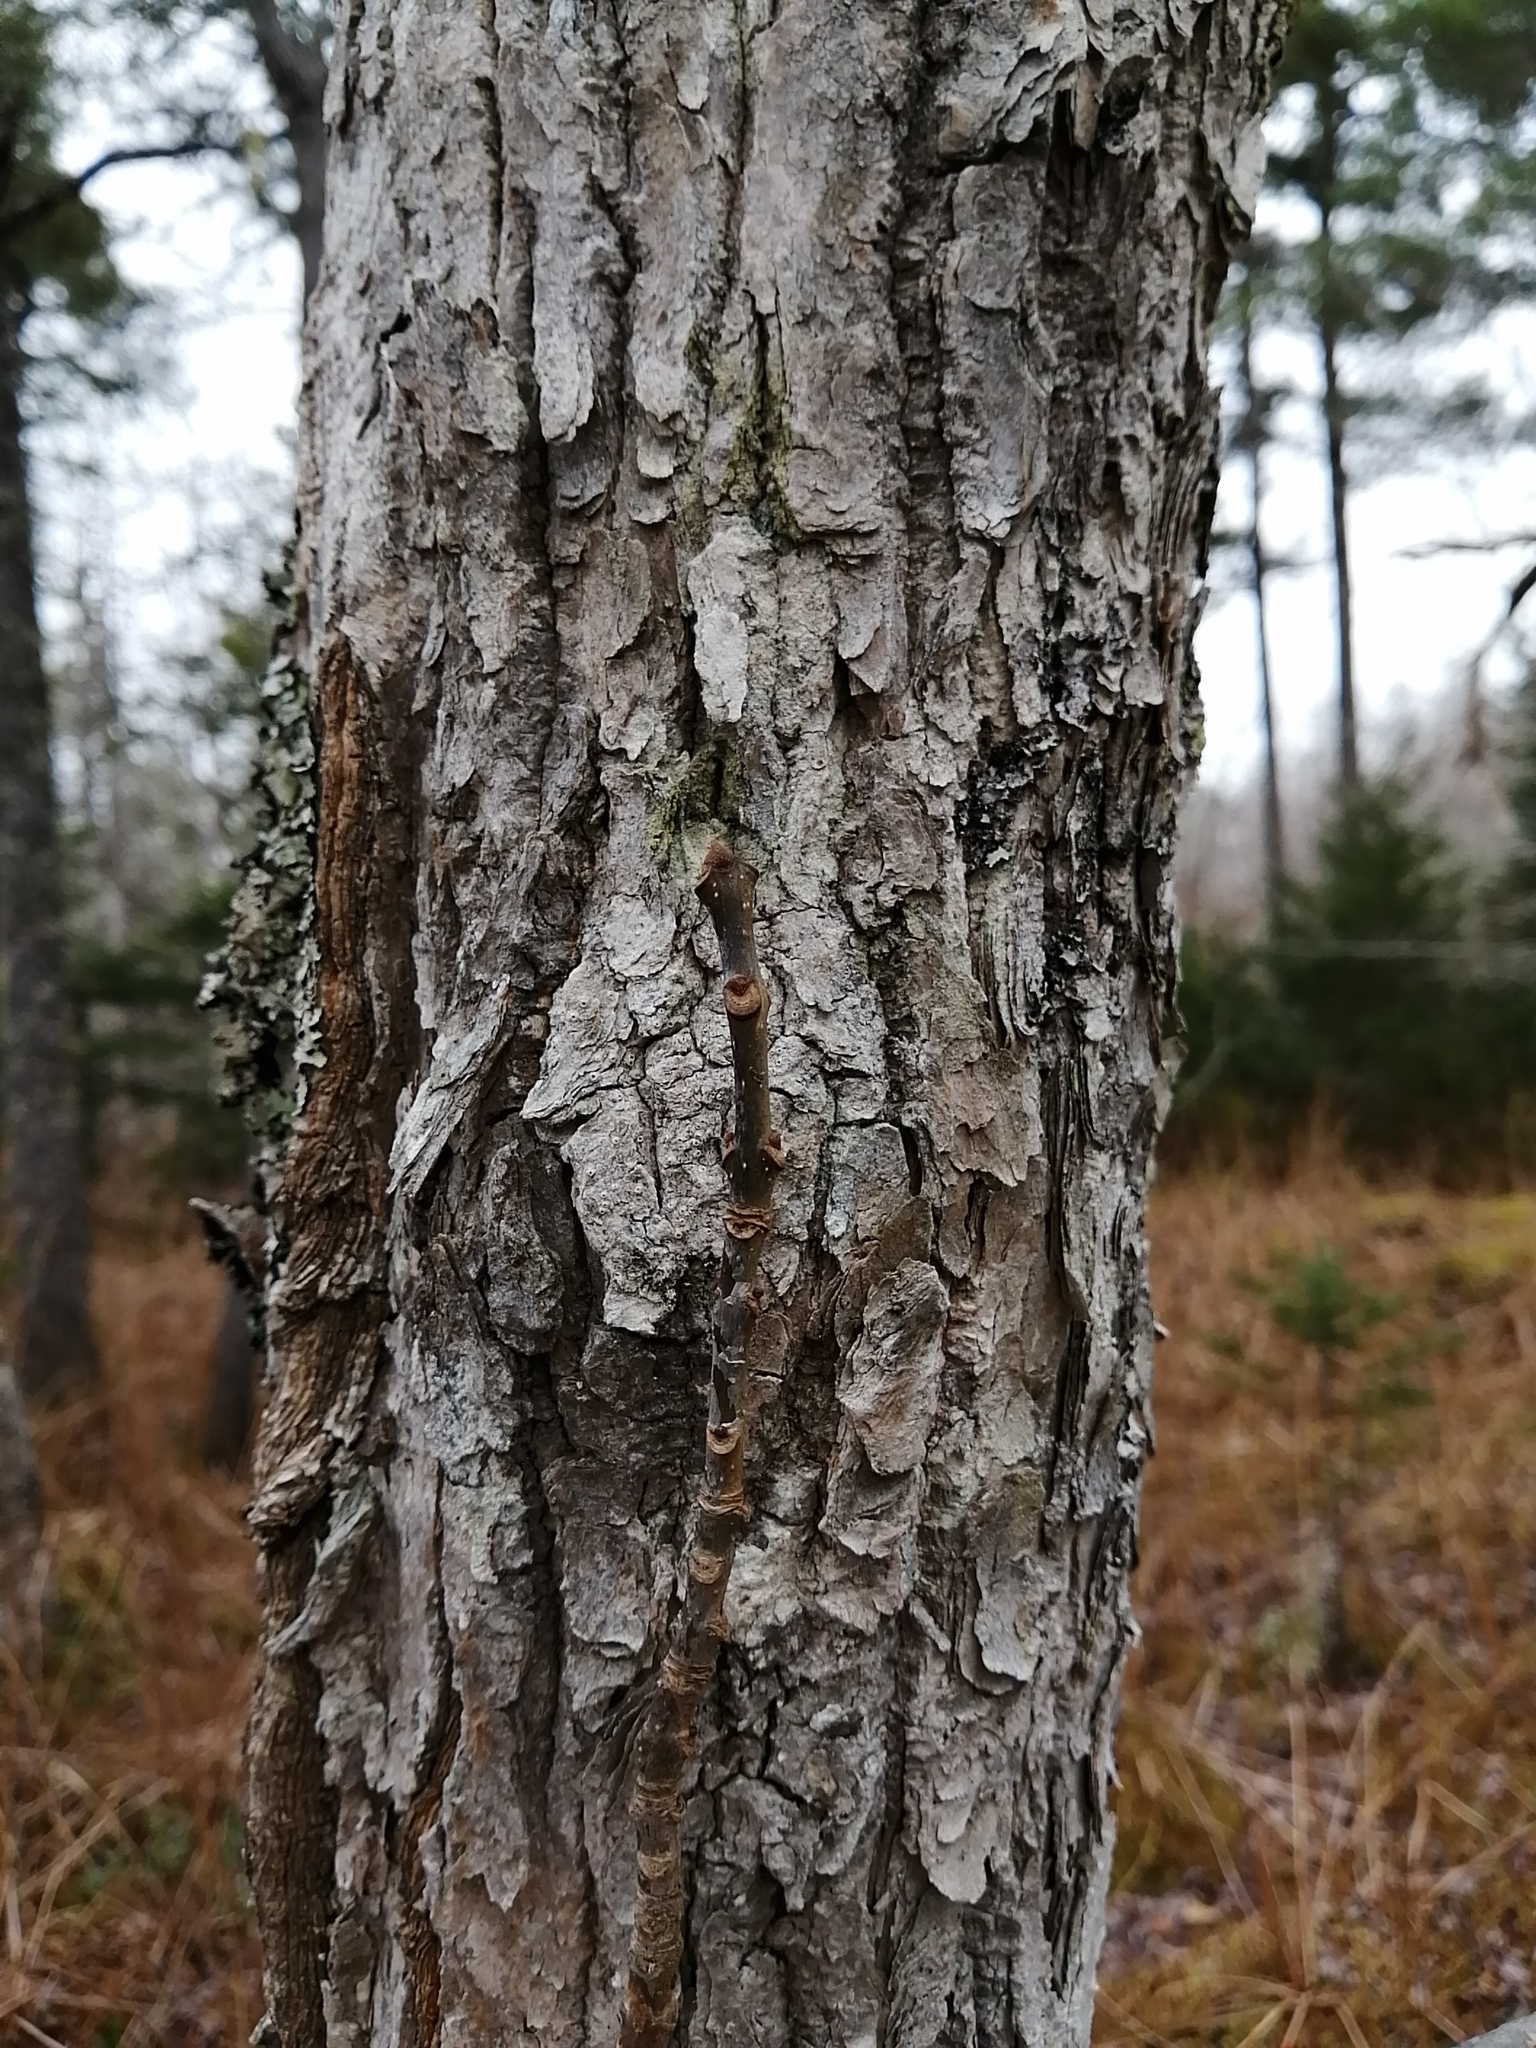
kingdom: Plantae
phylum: Tracheophyta
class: Magnoliopsida
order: Lamiales
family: Oleaceae
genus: Fraxinus
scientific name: Fraxinus americana
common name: White ash
